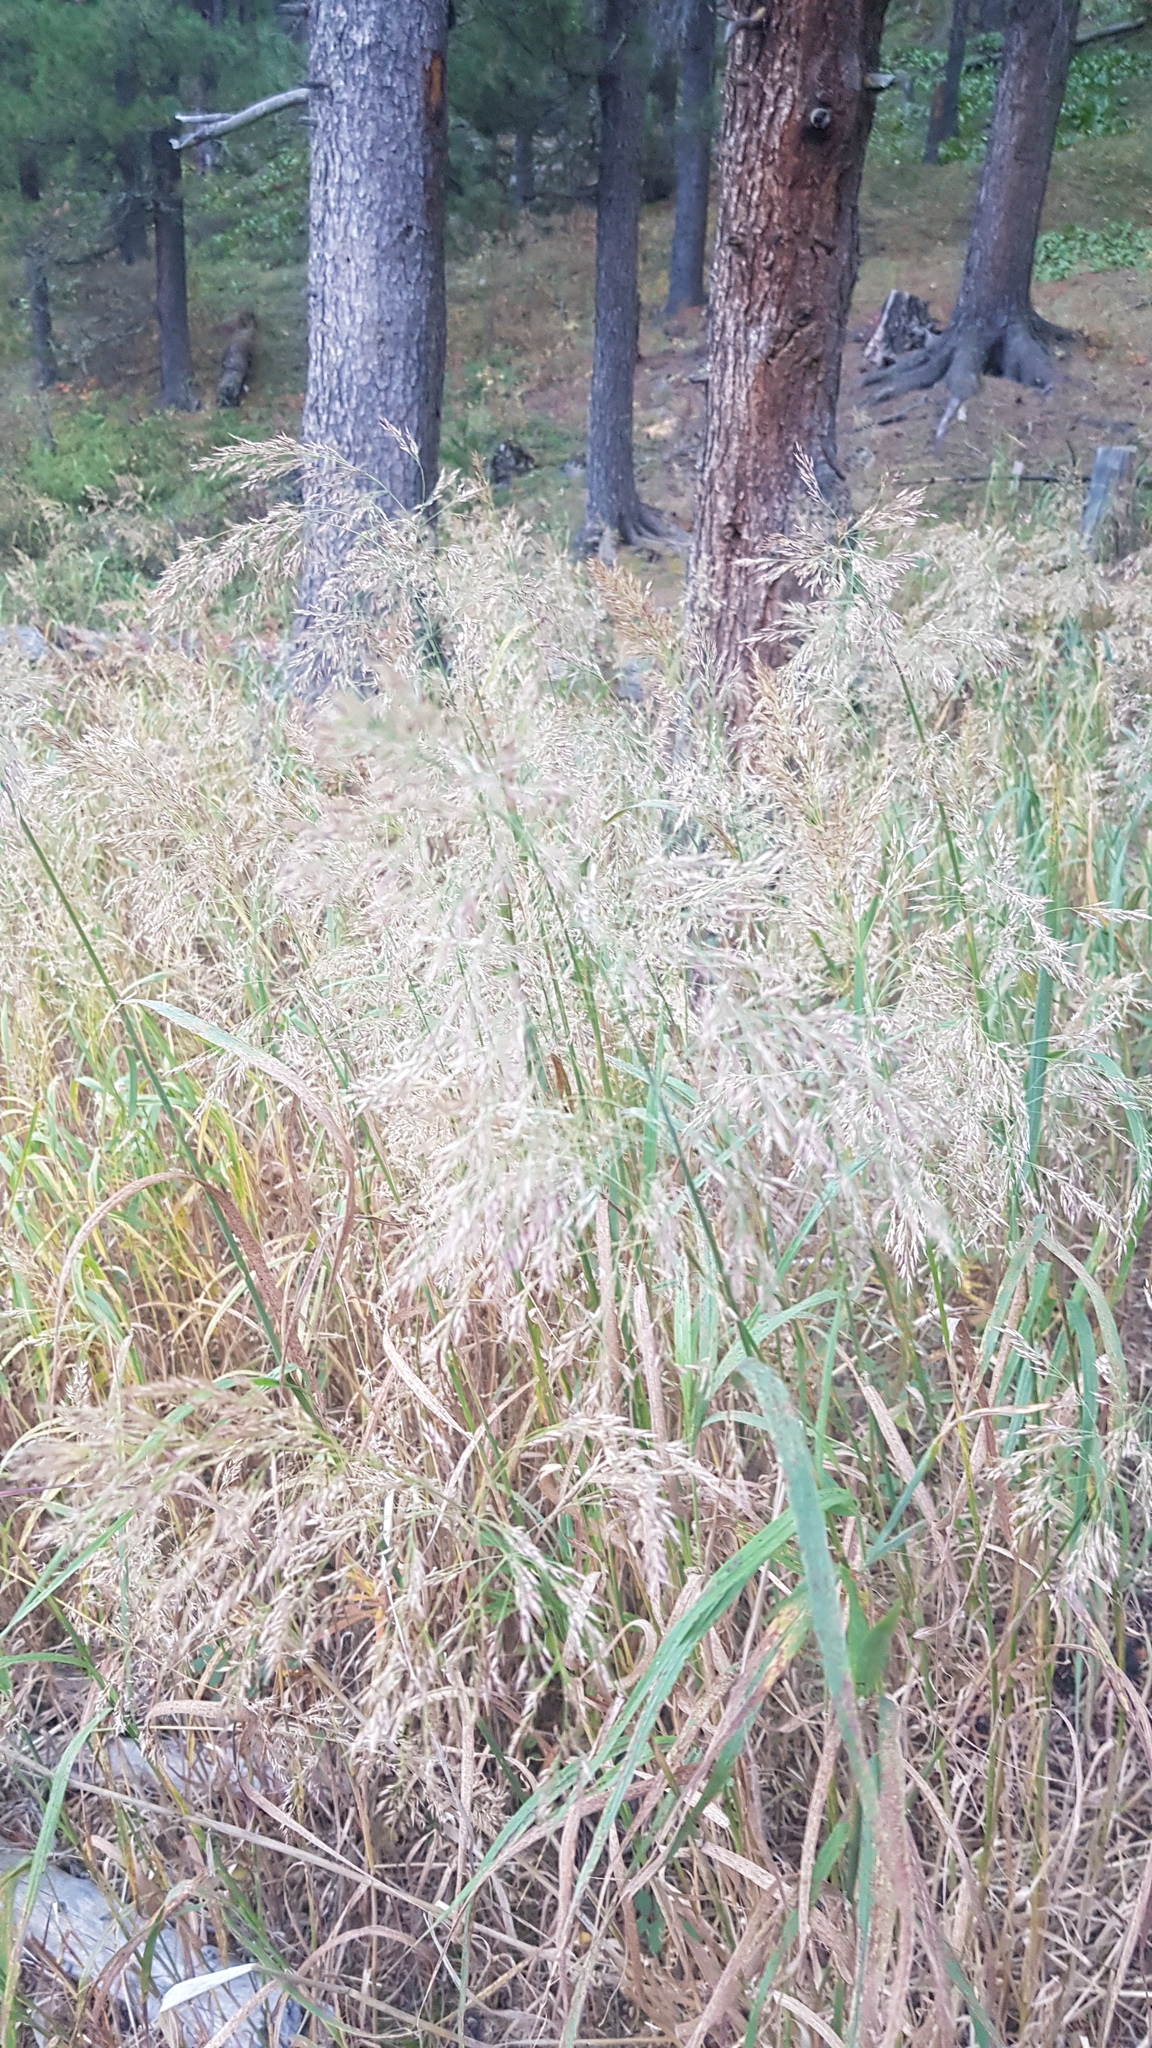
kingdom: Plantae
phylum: Tracheophyta
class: Liliopsida
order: Poales
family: Poaceae
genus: Agrostis
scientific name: Agrostis gigantea
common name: Black bent
